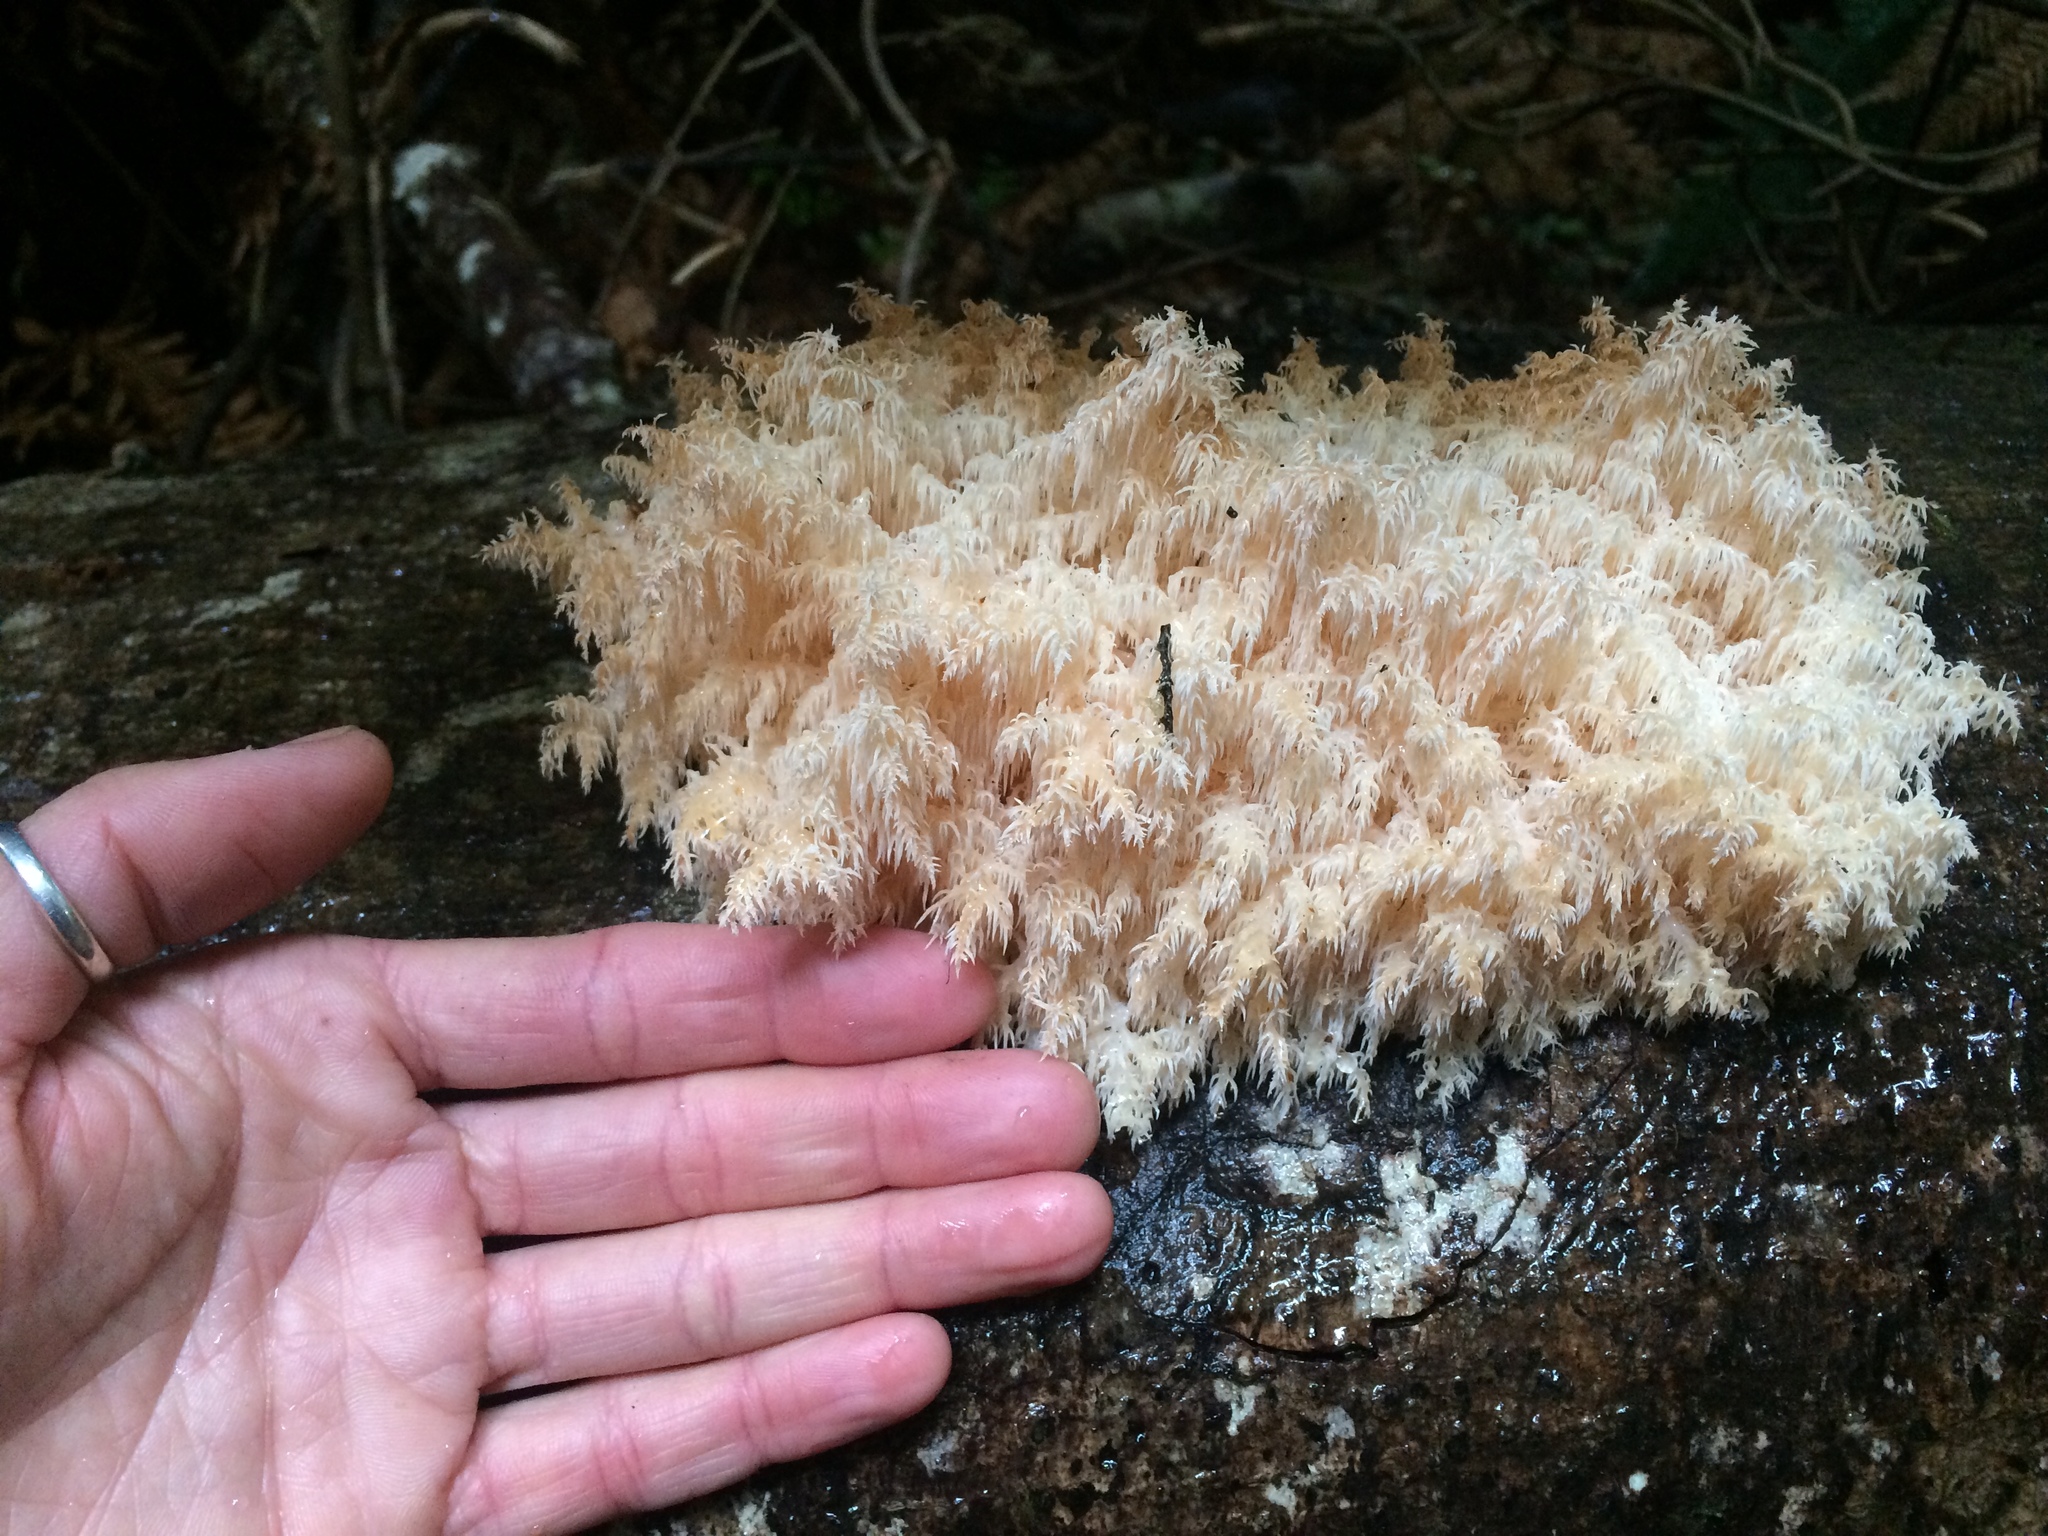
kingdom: Fungi
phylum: Basidiomycota
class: Agaricomycetes
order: Russulales
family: Hericiaceae
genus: Hericium
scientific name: Hericium novae-zealandiae
